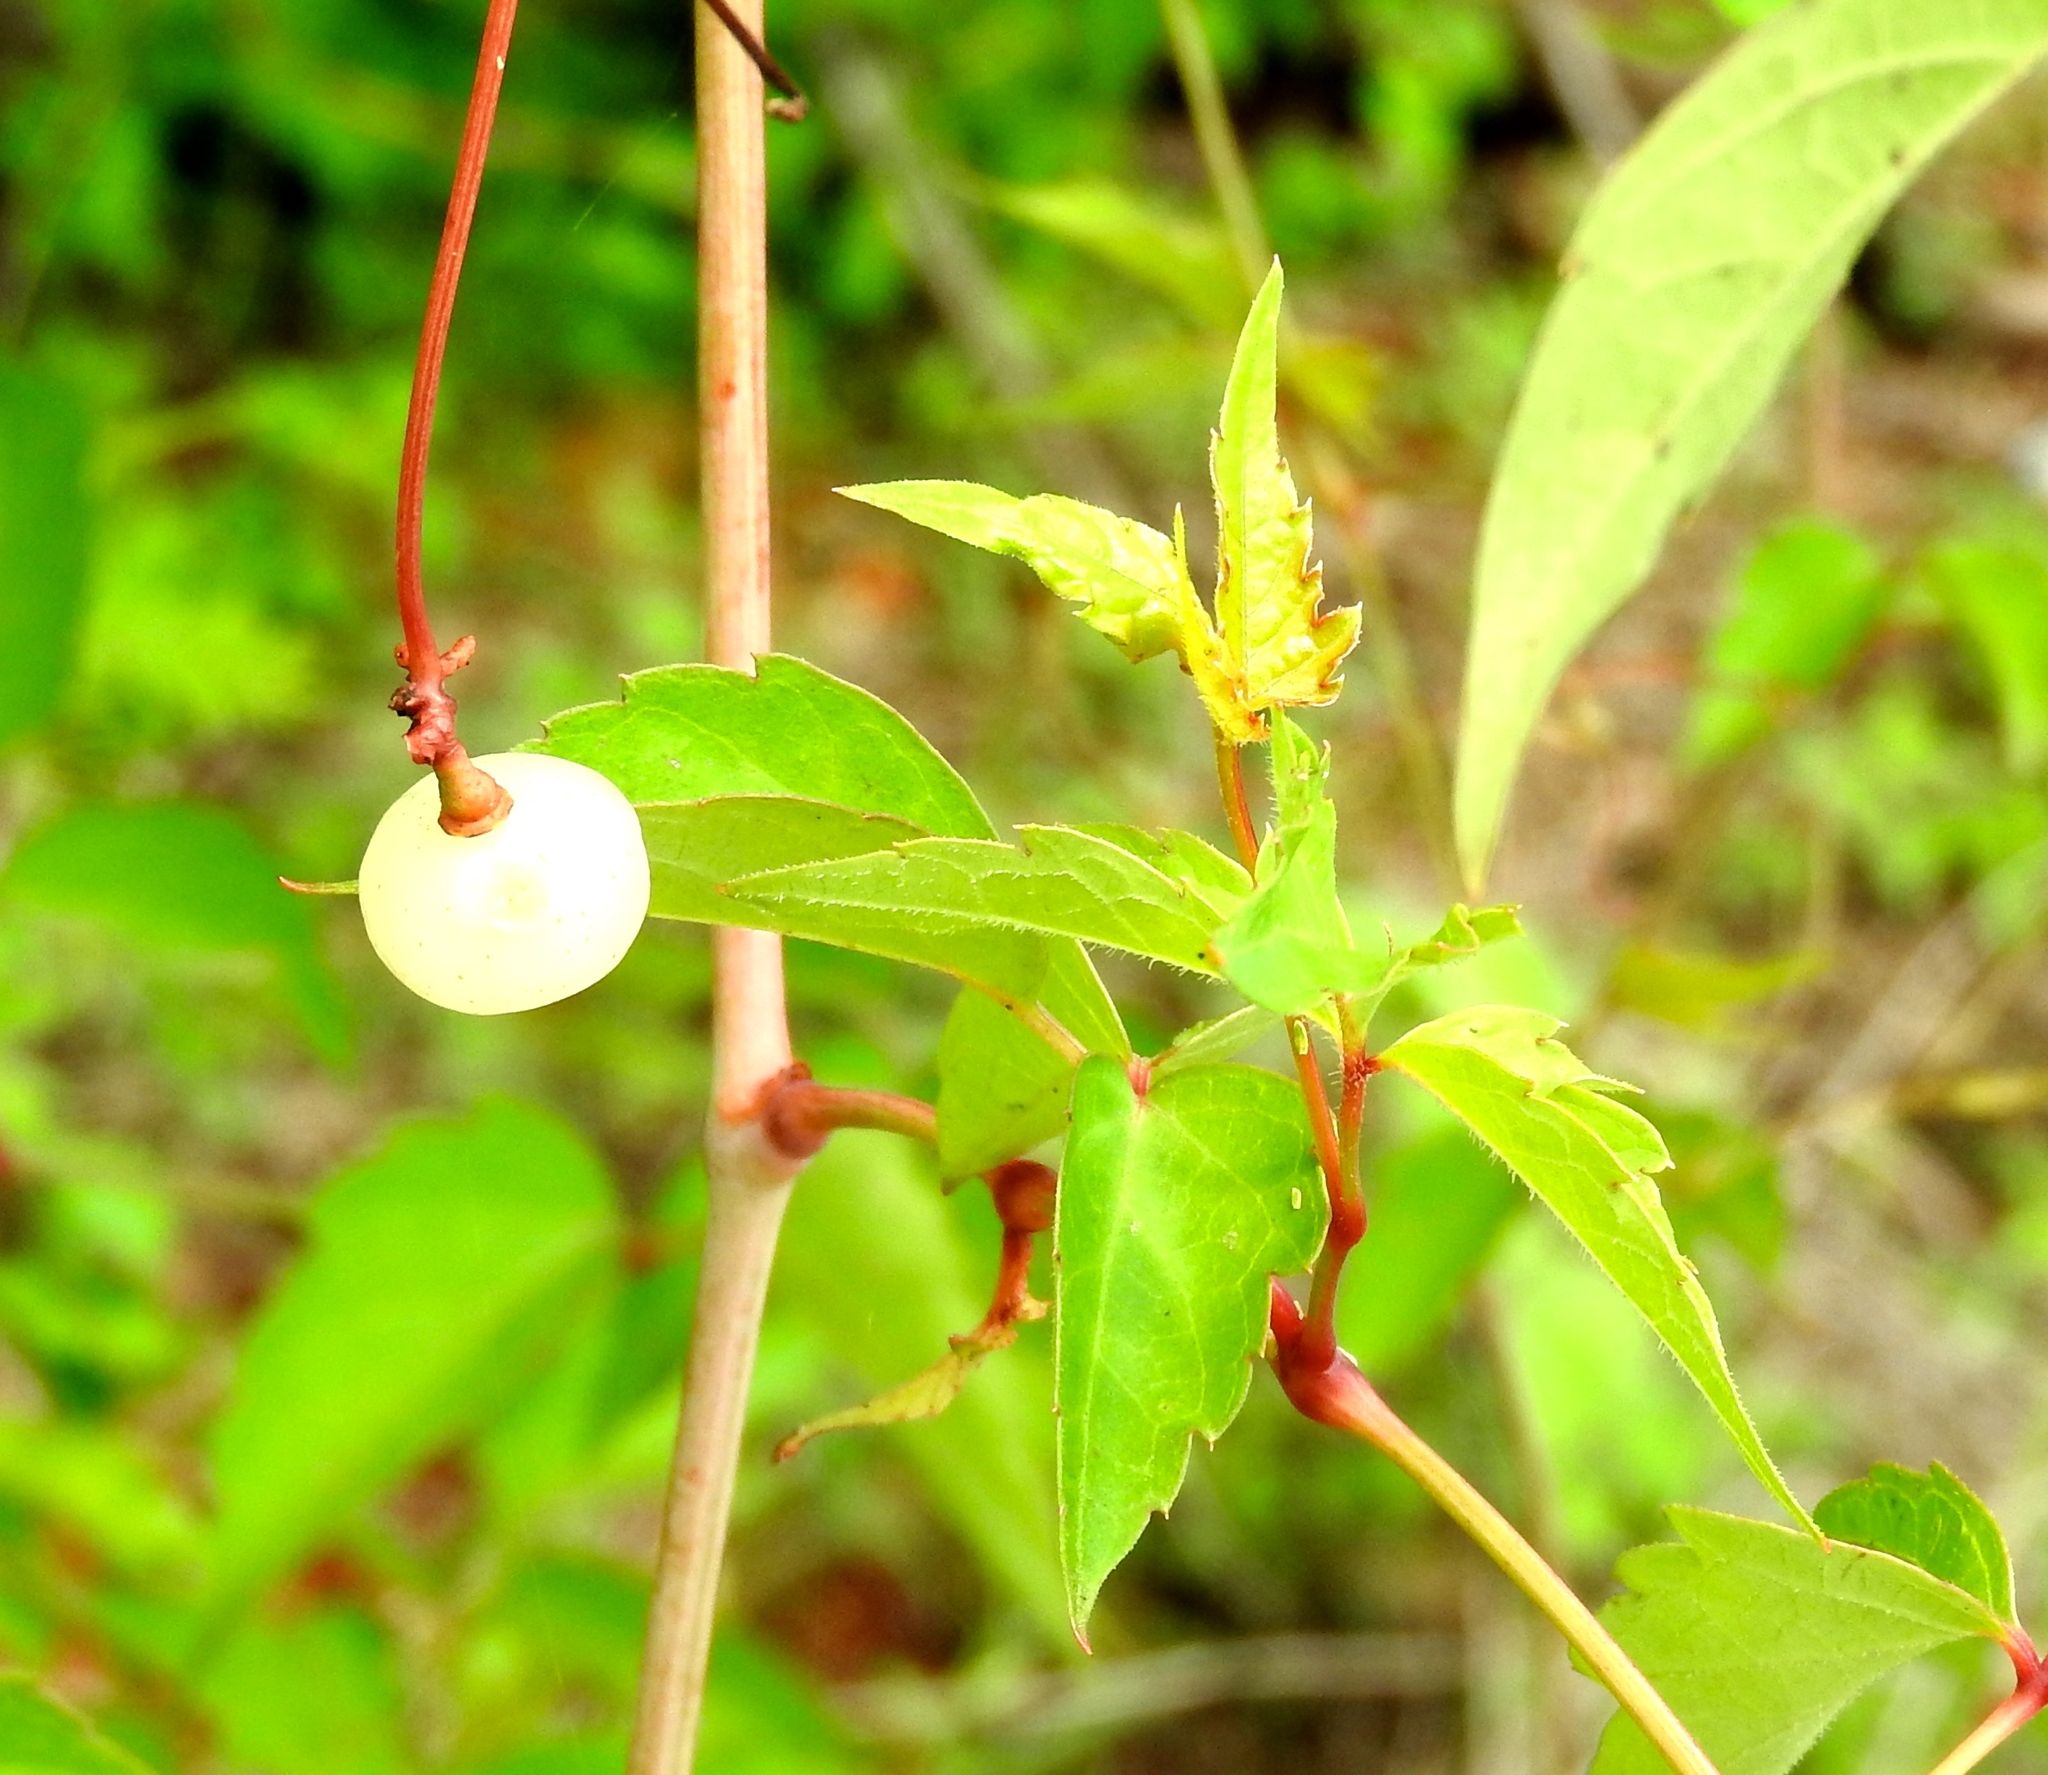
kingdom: Plantae
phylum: Tracheophyta
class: Magnoliopsida
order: Vitales
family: Vitaceae
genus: Ampelopsis
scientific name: Ampelopsis denudata
